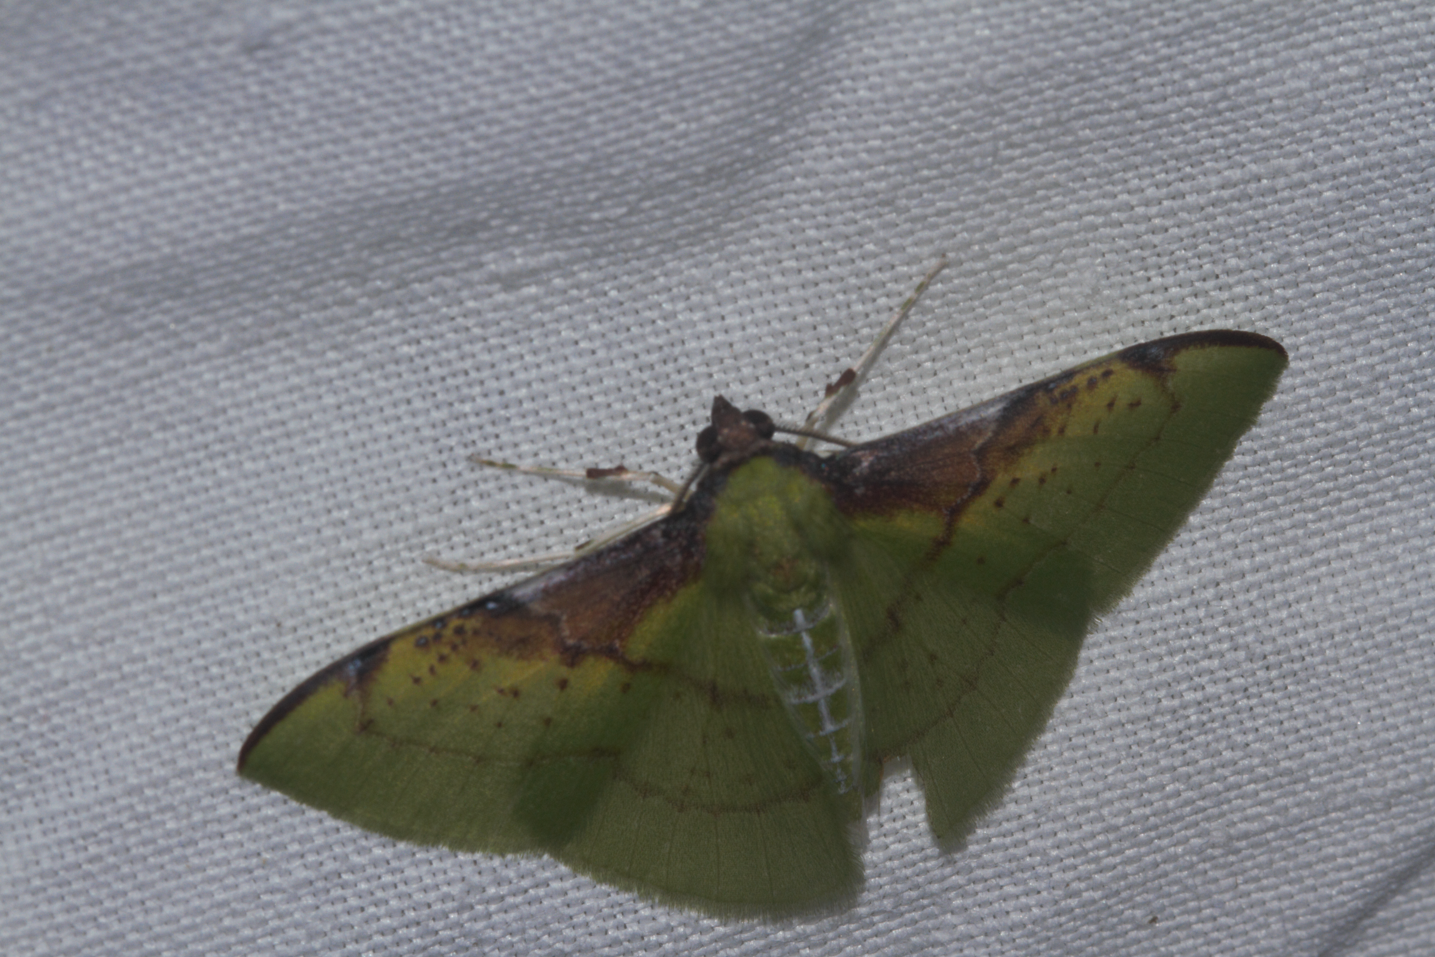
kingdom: Animalia
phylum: Arthropoda
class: Insecta
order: Lepidoptera
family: Geometridae
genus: Lindachlora
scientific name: Lindachlora flaccida
